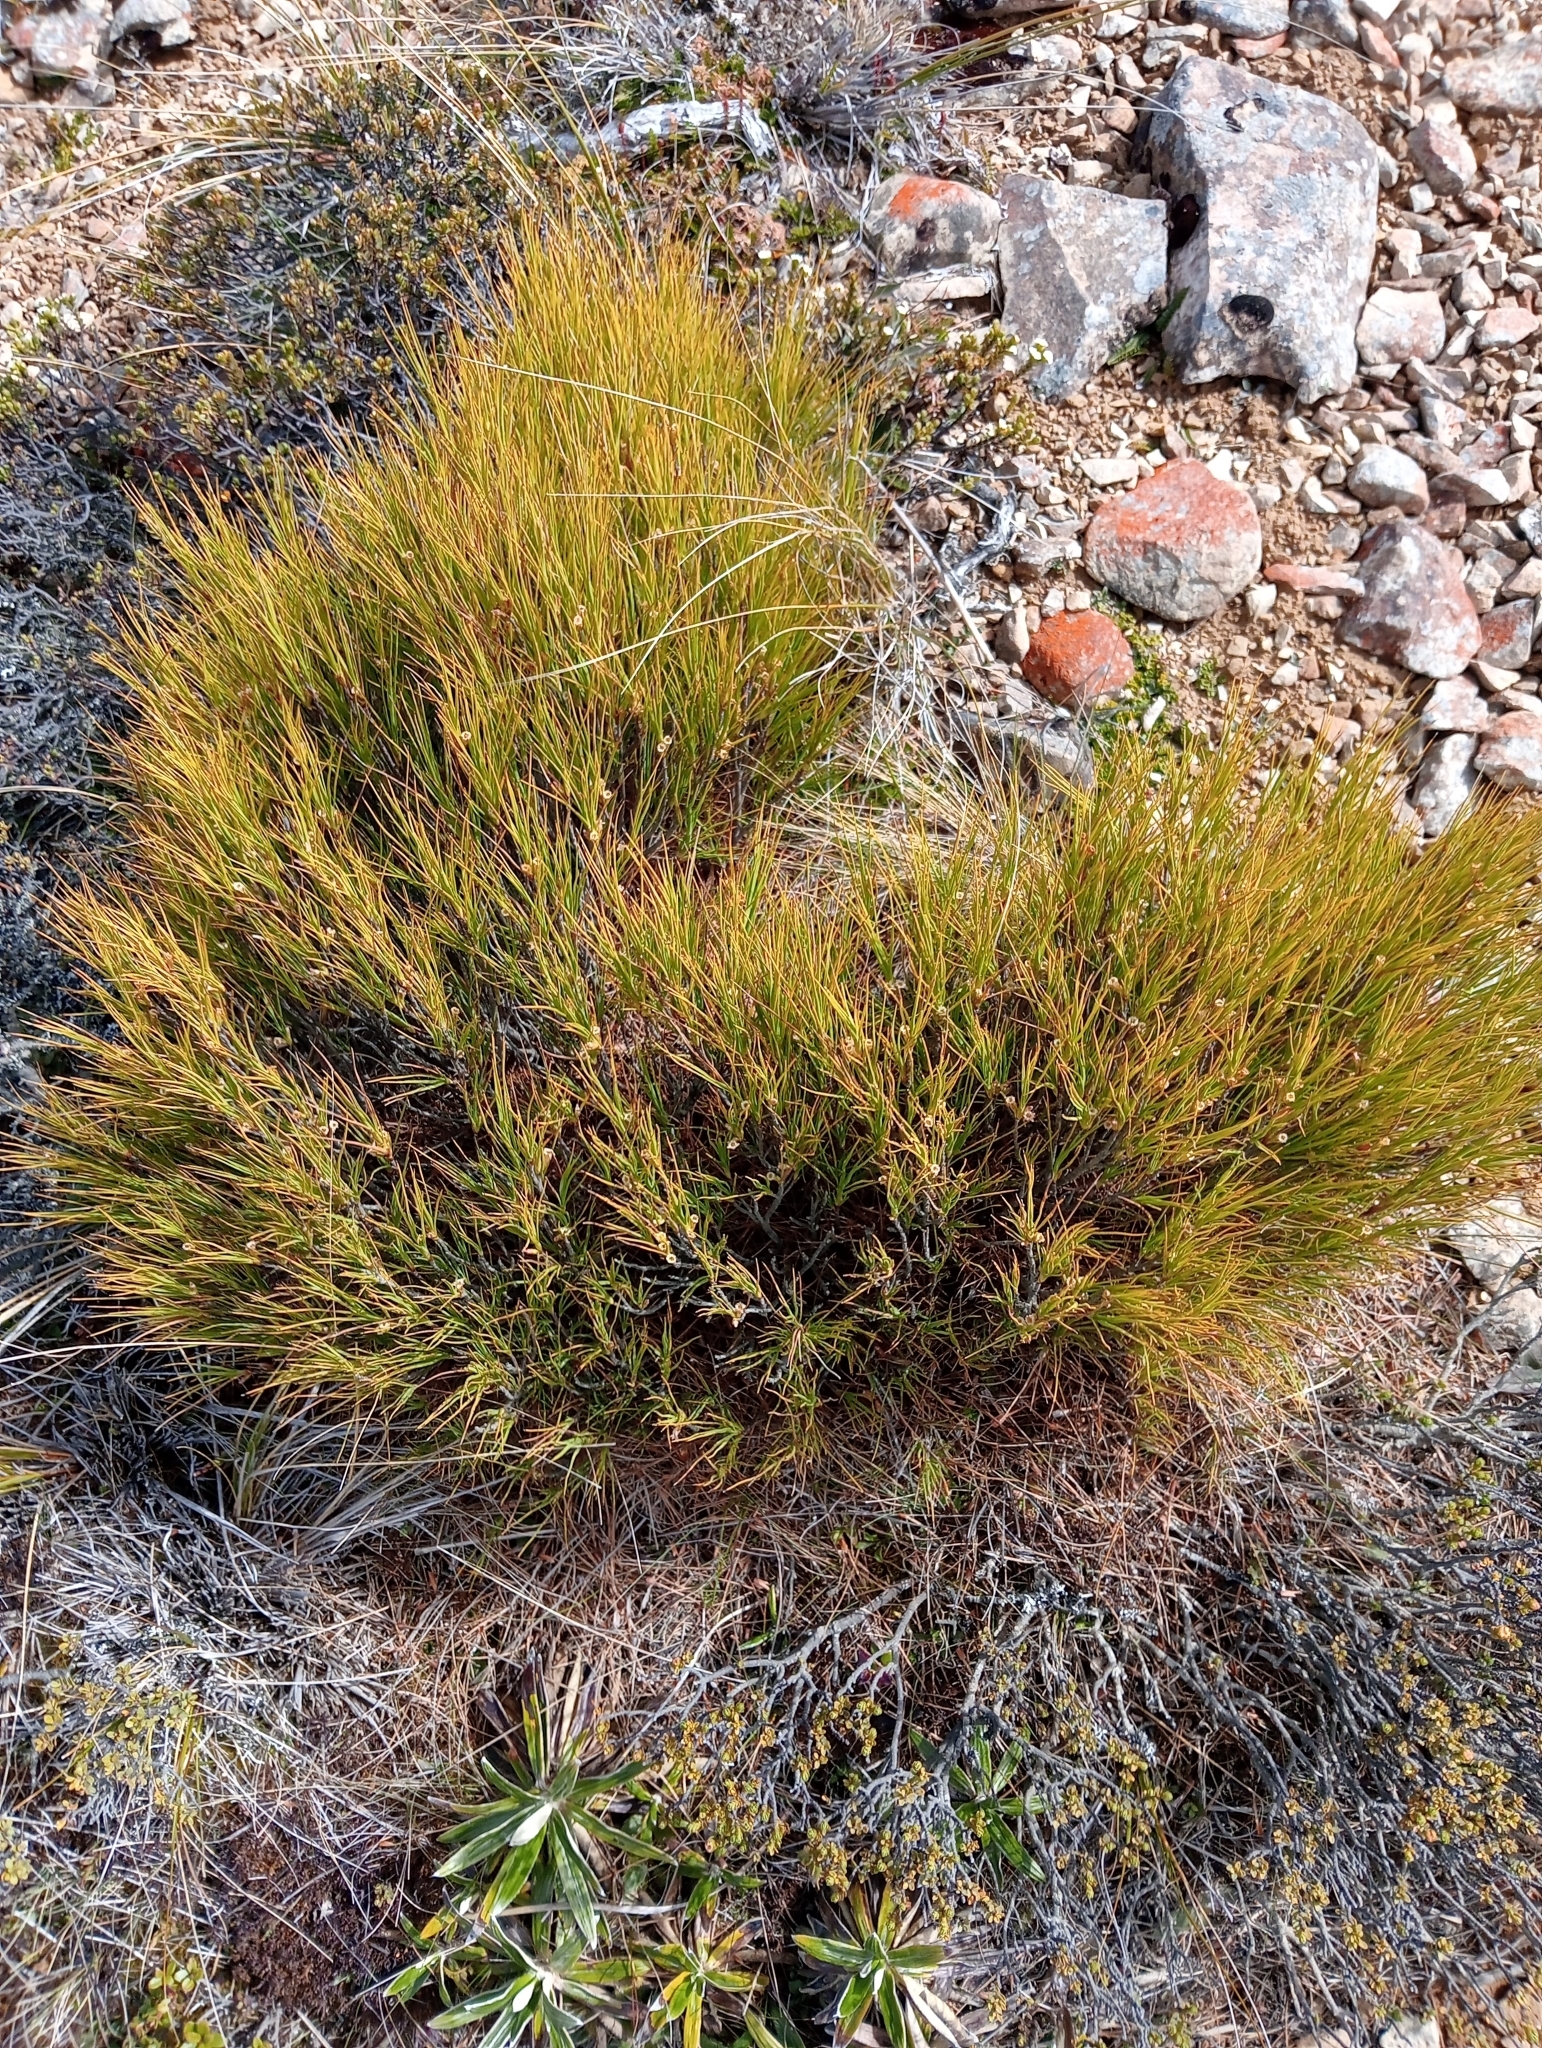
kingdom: Plantae
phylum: Tracheophyta
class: Magnoliopsida
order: Ericales
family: Ericaceae
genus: Dracophyllum
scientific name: Dracophyllum acerosum
